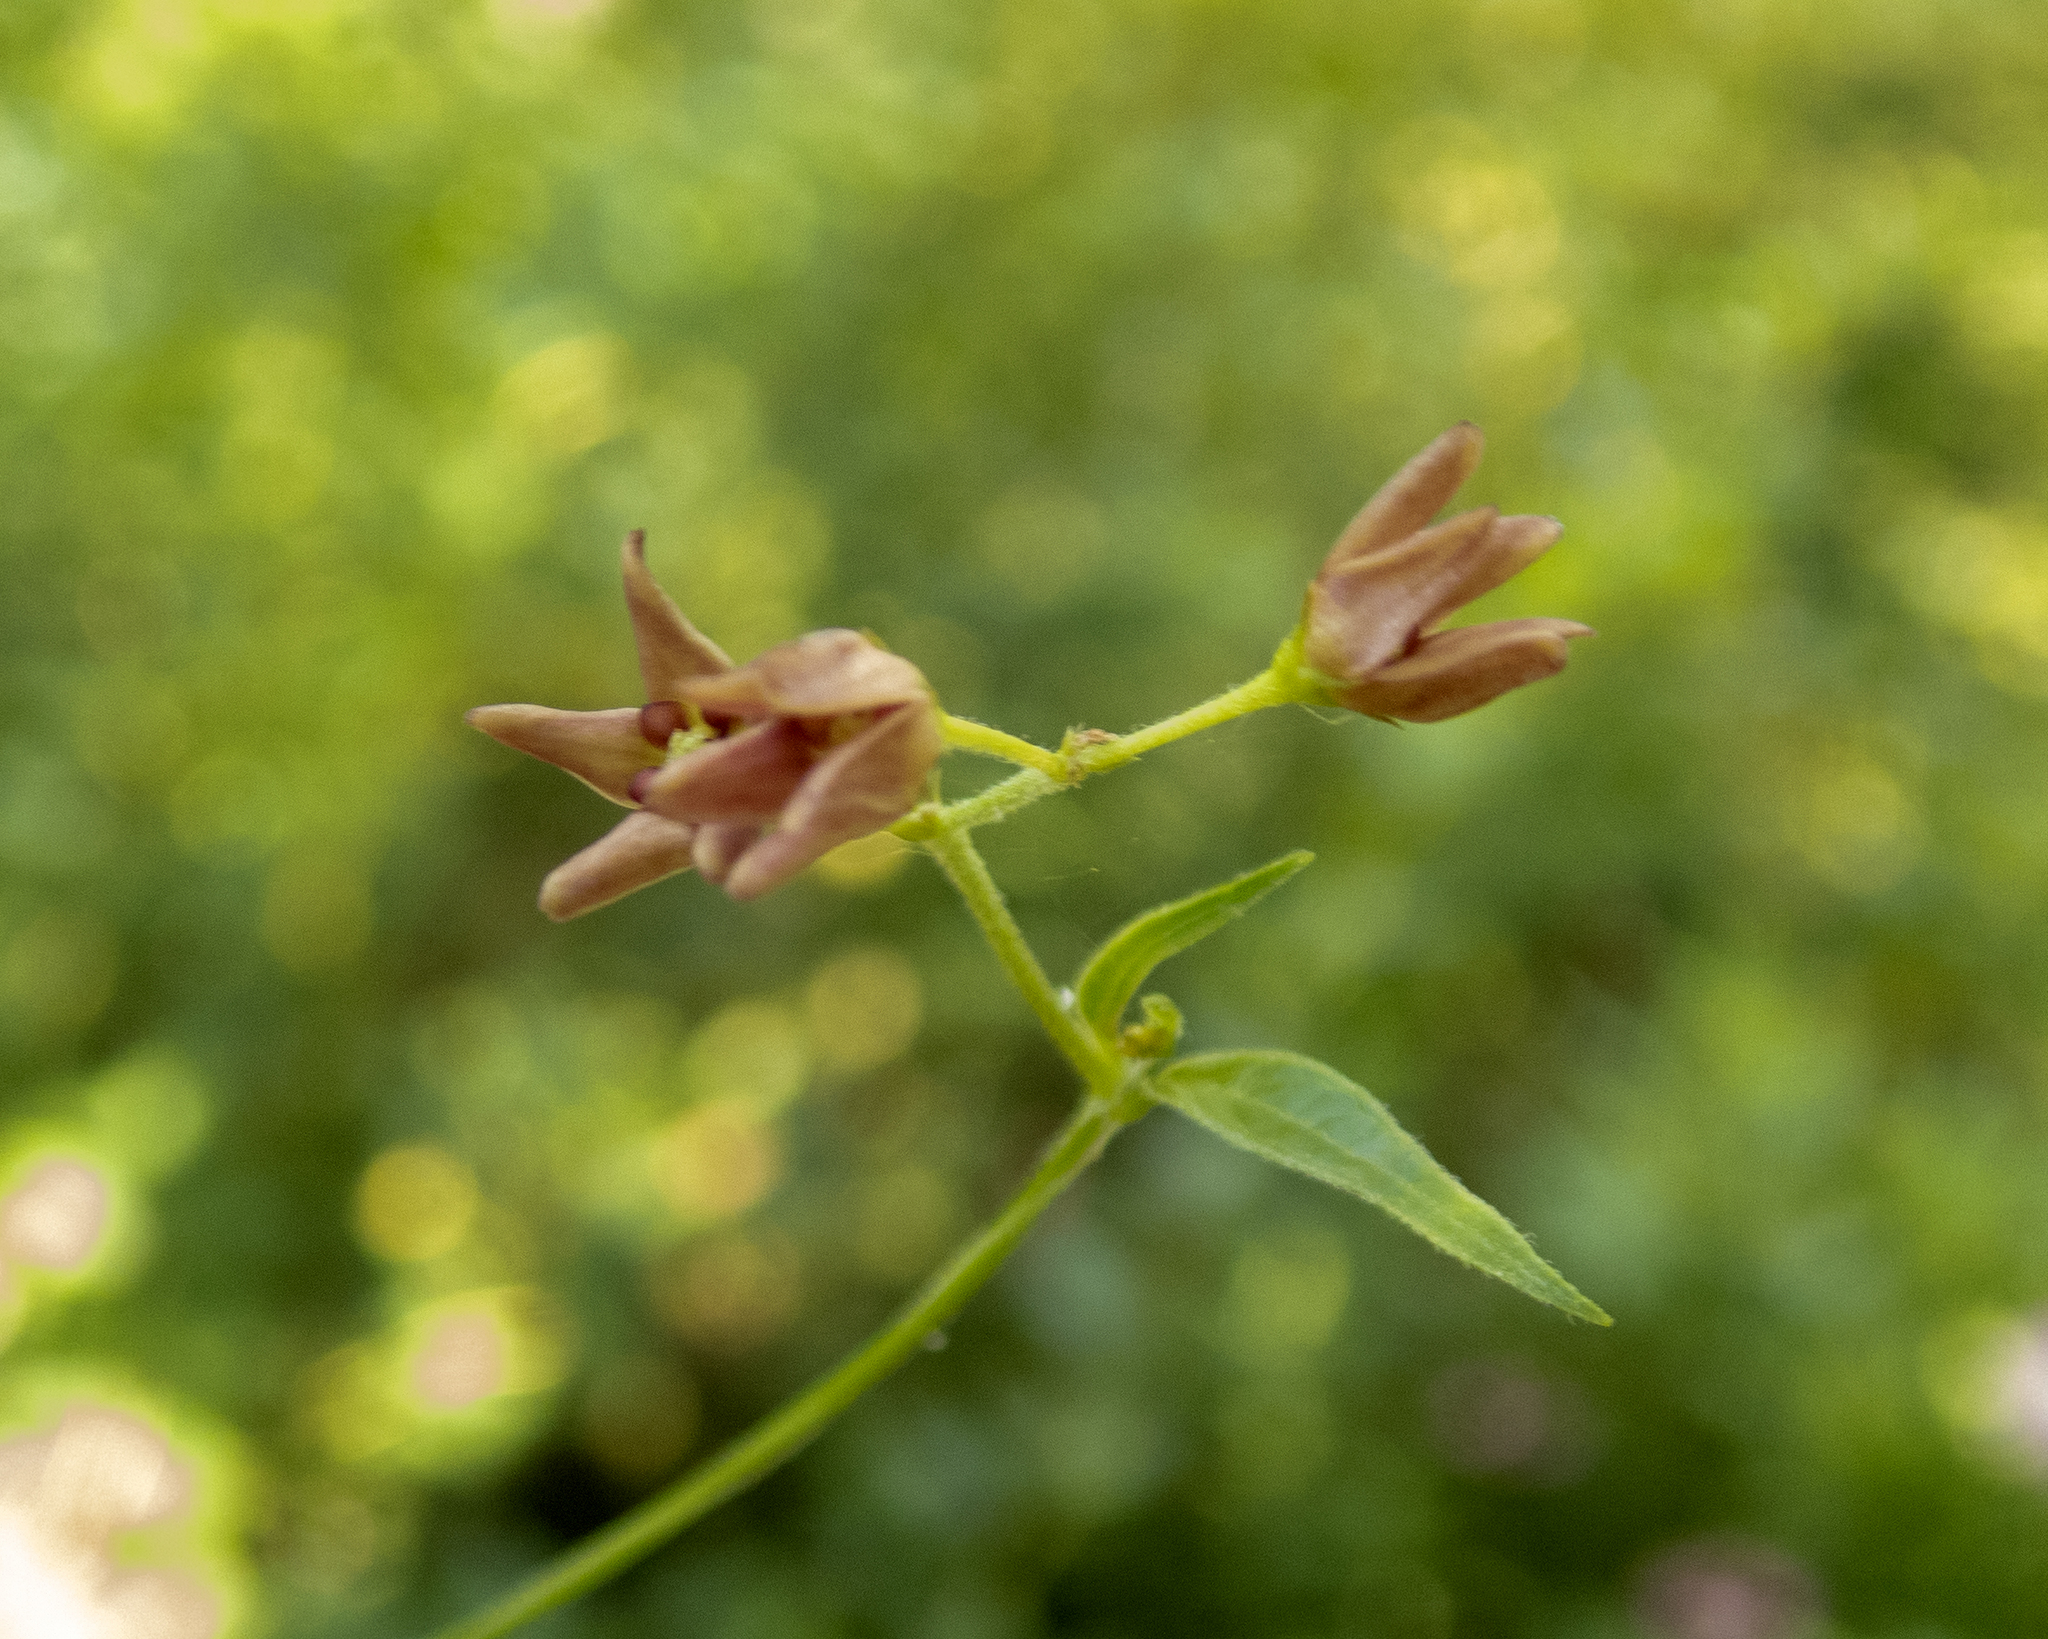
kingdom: Plantae
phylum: Tracheophyta
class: Magnoliopsida
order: Gentianales
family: Apocynaceae
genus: Vincetoxicum
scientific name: Vincetoxicum rossicum
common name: Dog-strangling vine
